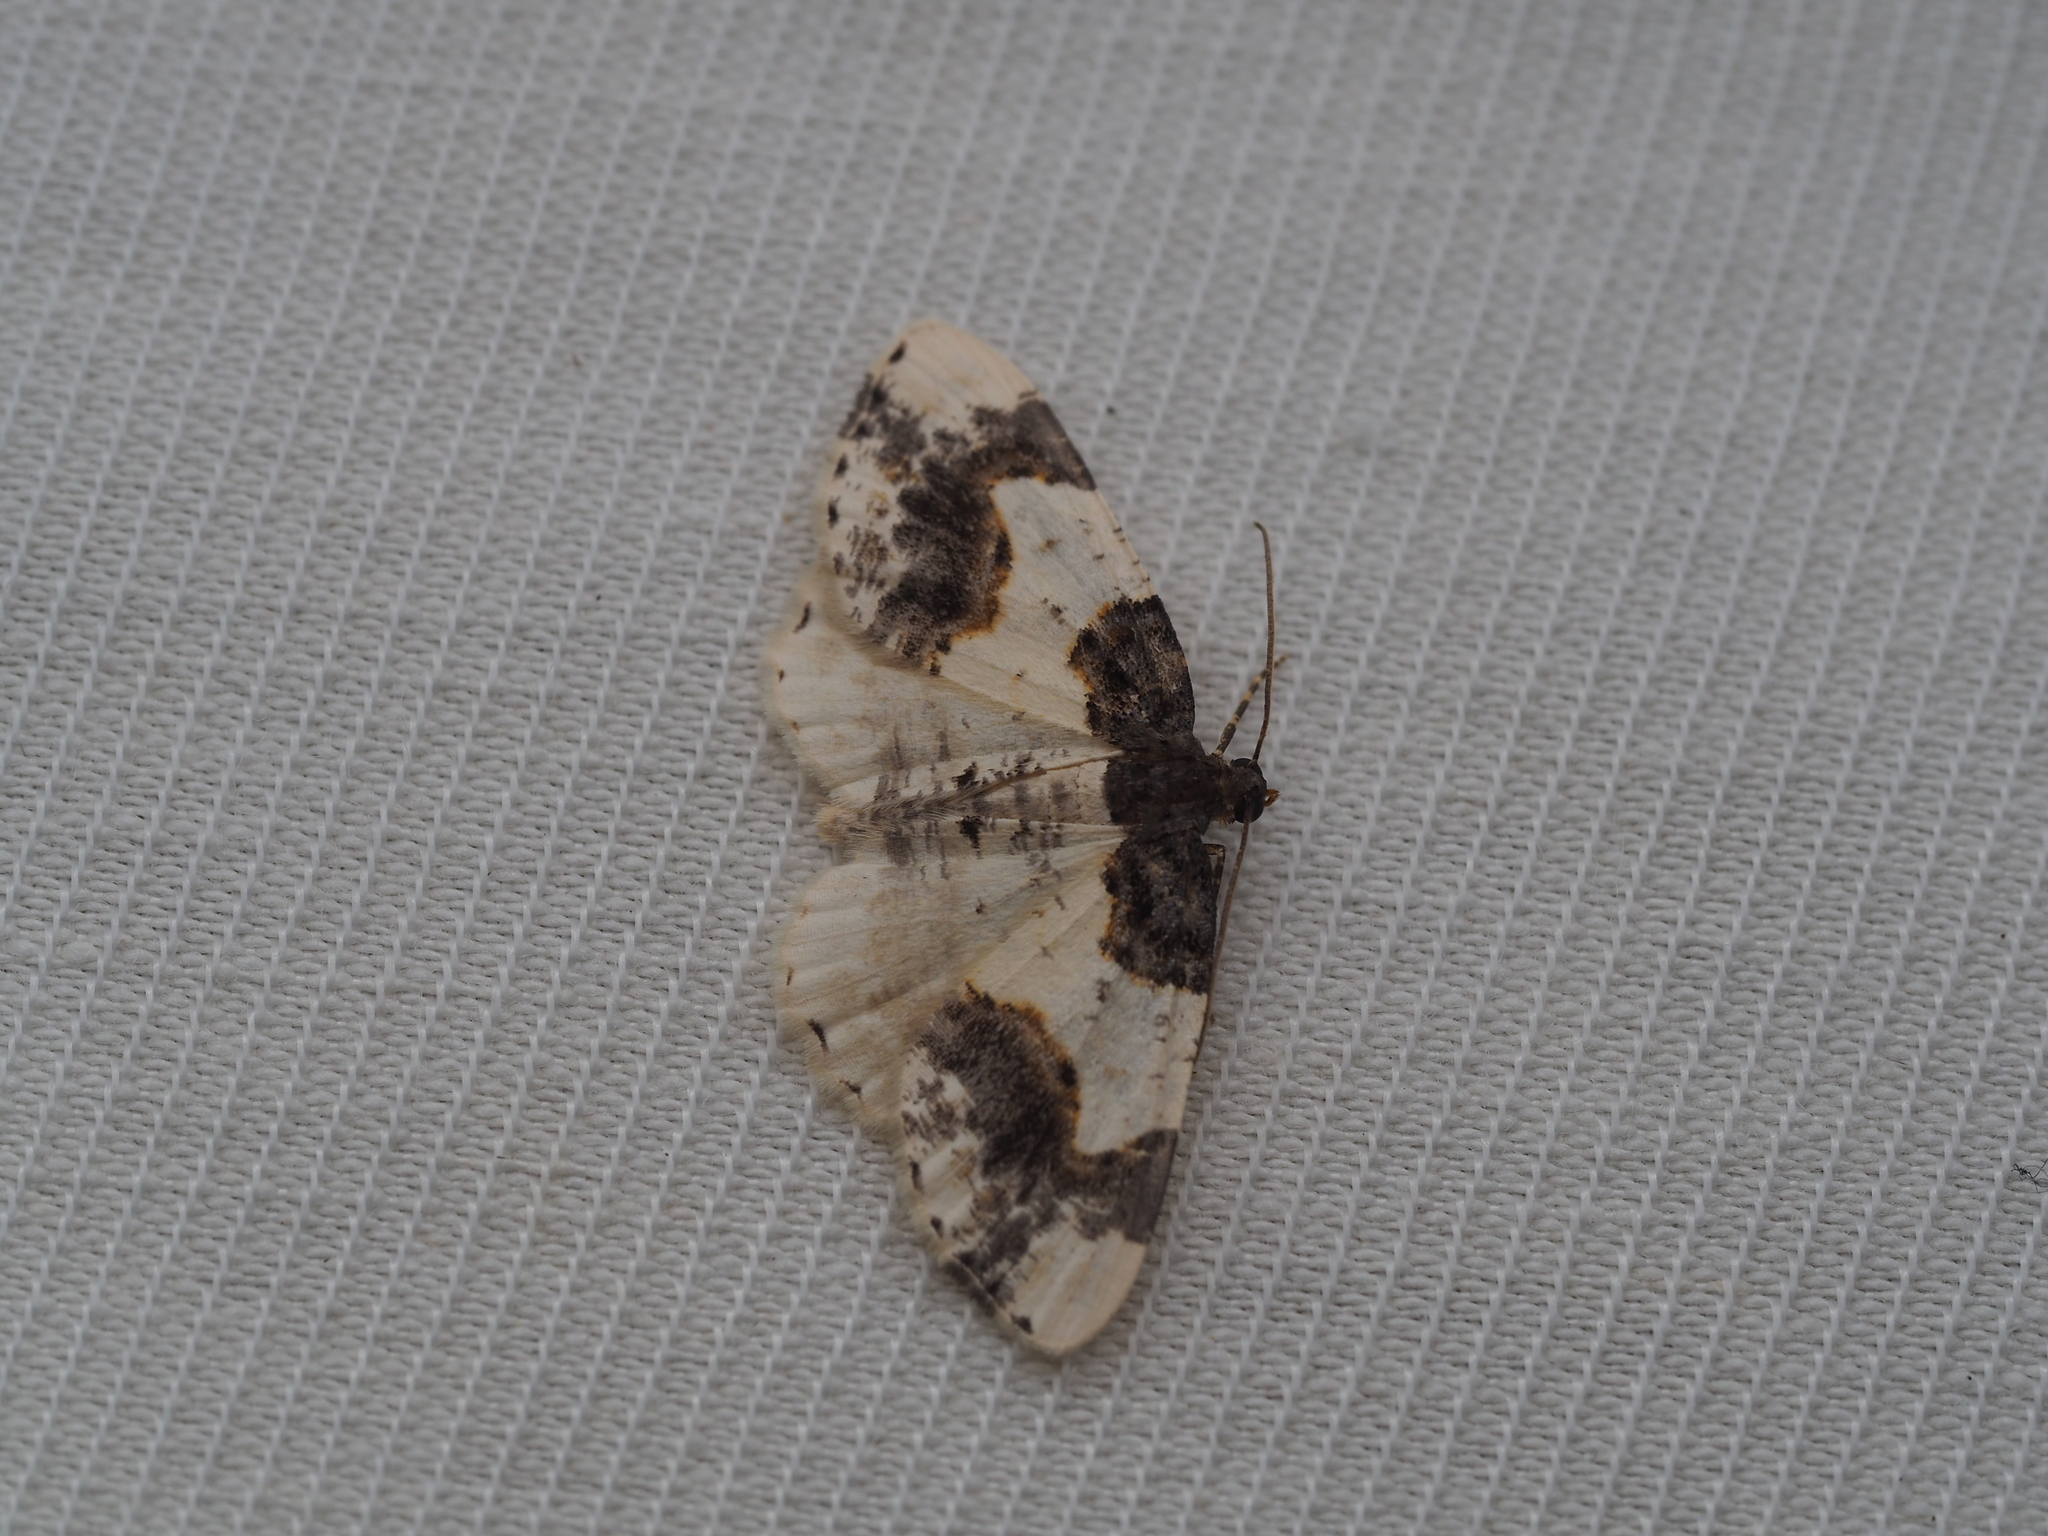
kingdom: Animalia
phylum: Arthropoda
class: Insecta
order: Lepidoptera
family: Geometridae
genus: Ligdia
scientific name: Ligdia adustata
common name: Scorched carpet
